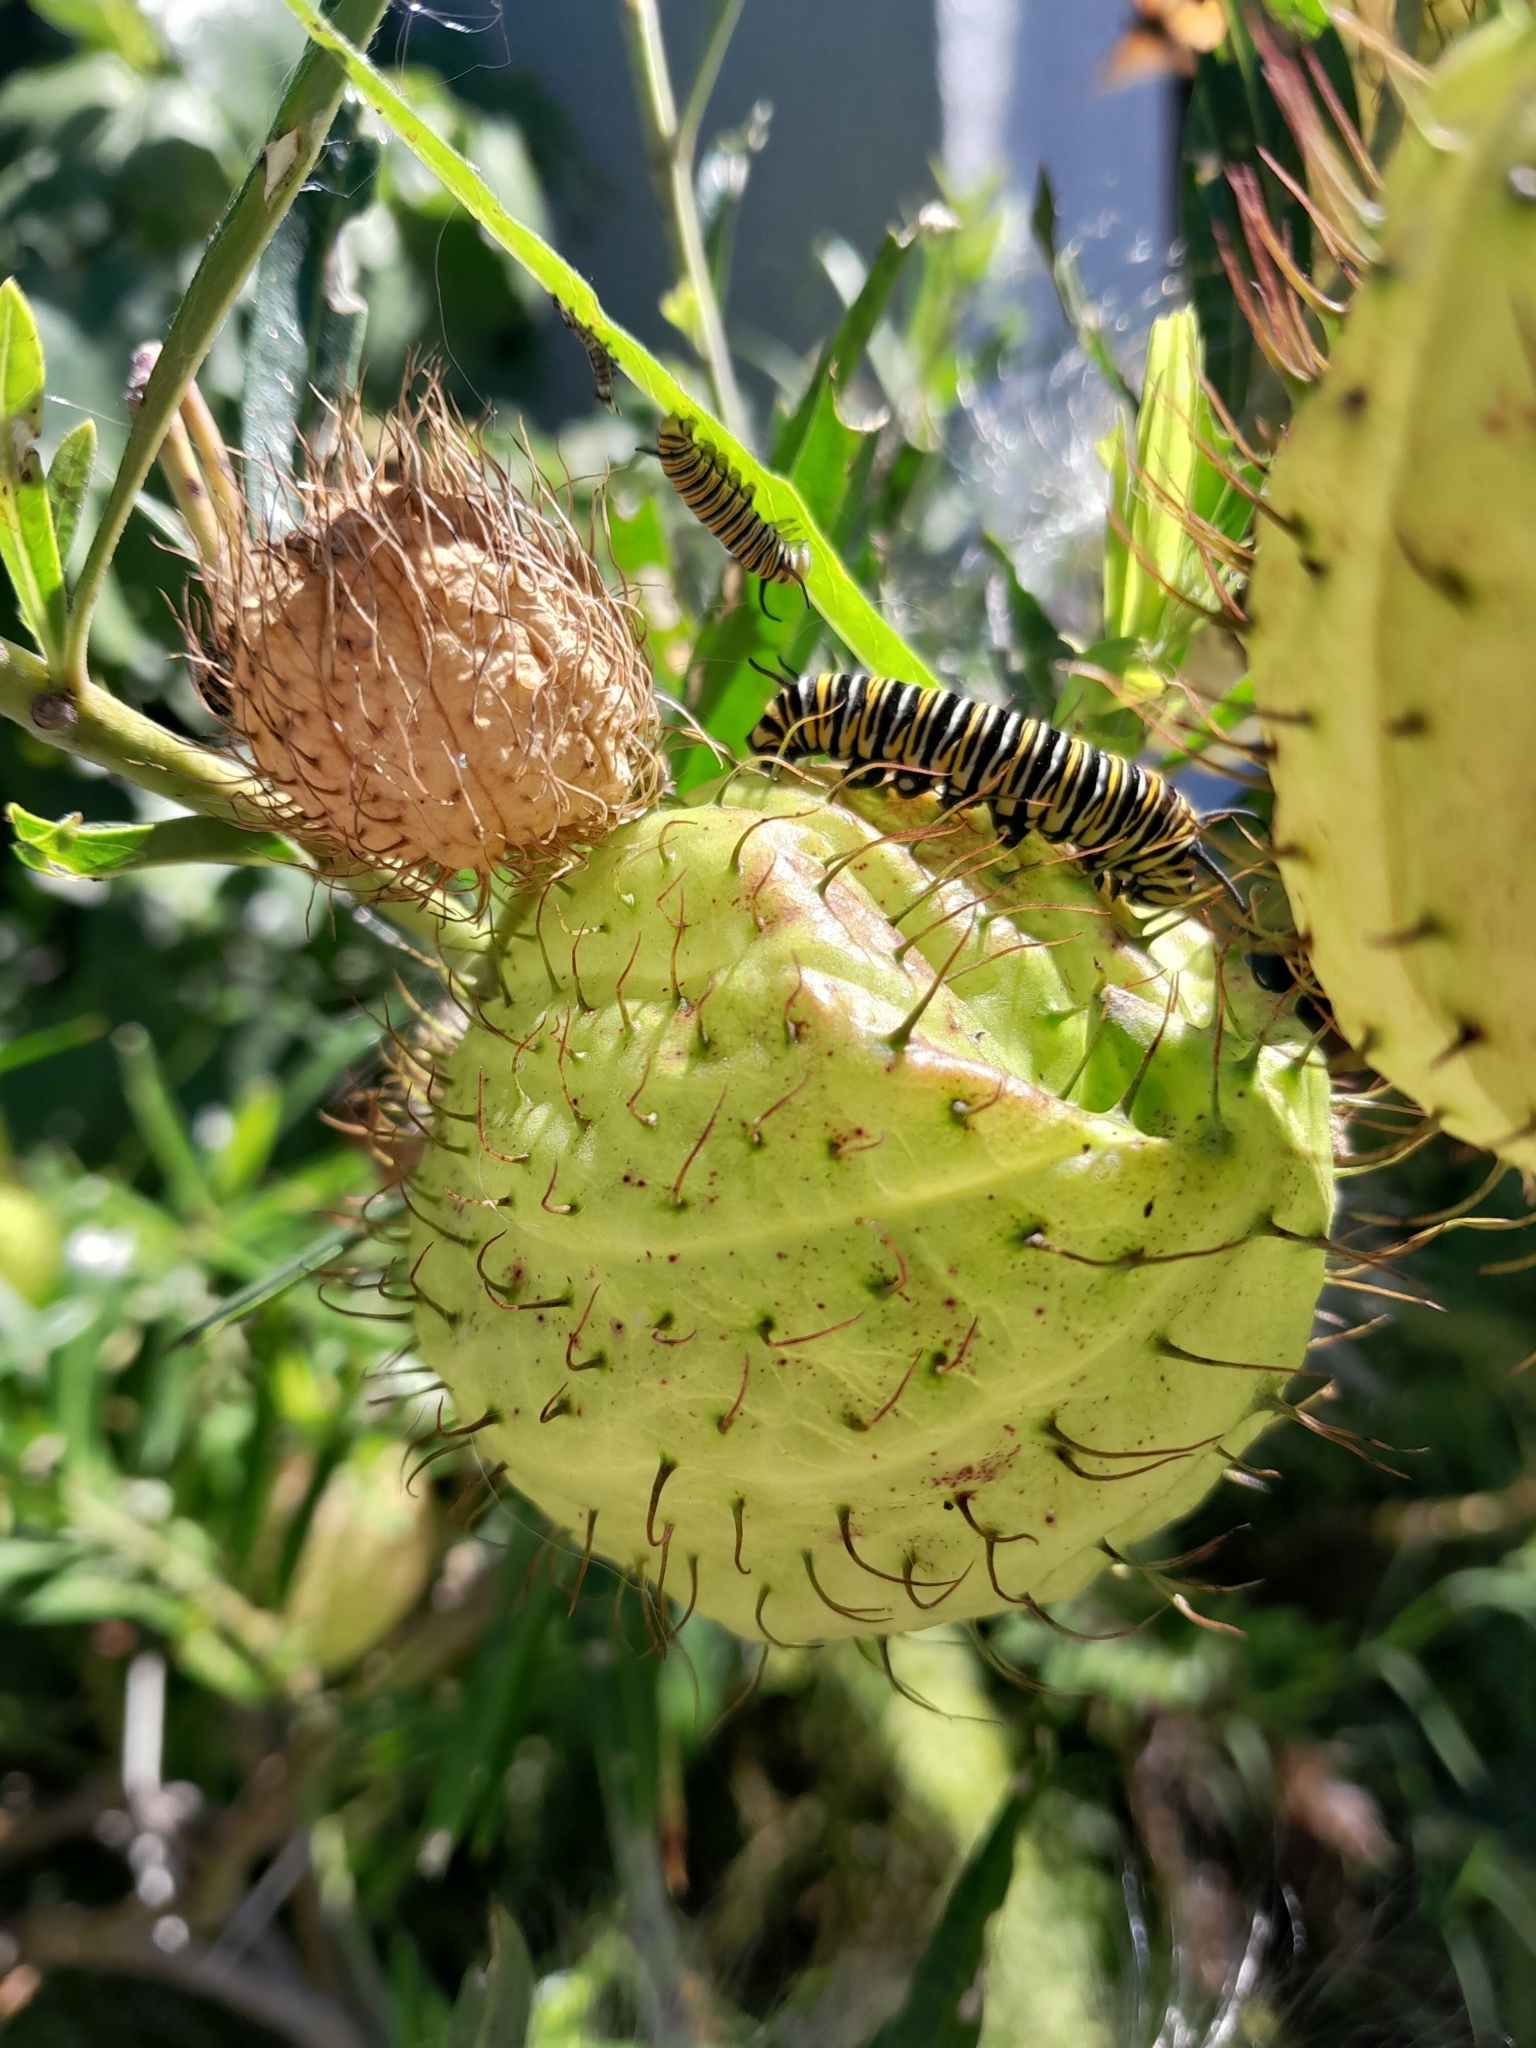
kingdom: Animalia
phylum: Arthropoda
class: Insecta
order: Lepidoptera
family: Nymphalidae
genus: Danaus
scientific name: Danaus plexippus
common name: Monarch
